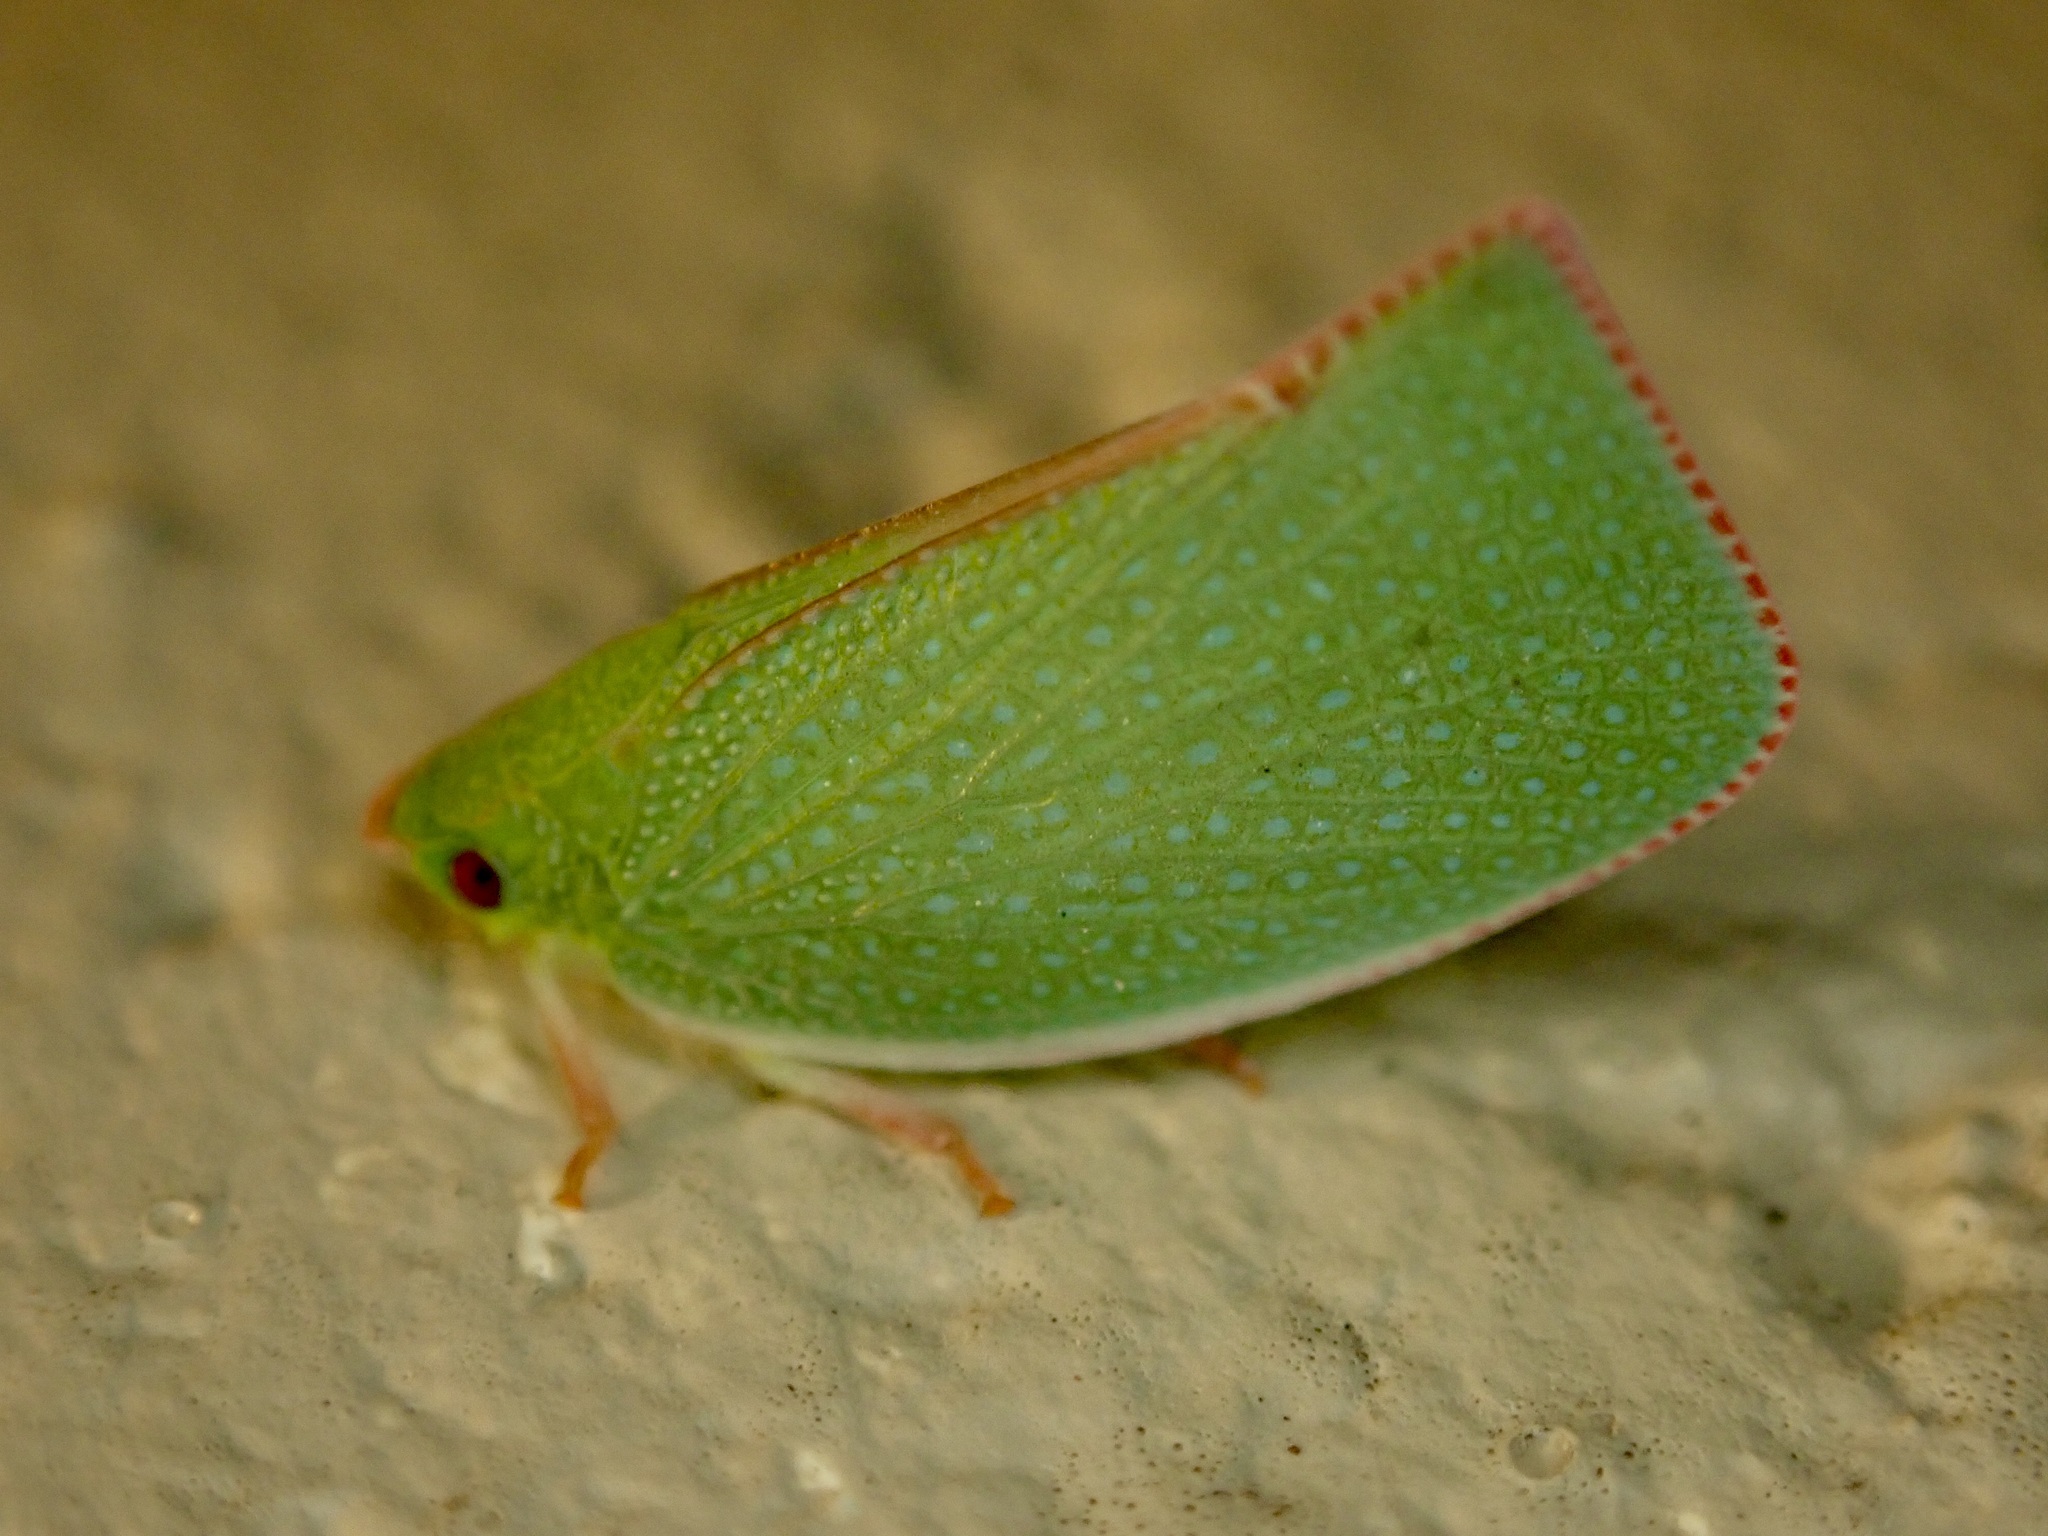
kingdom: Animalia
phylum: Arthropoda
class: Insecta
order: Hemiptera
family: Flatidae
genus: Siphanta
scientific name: Siphanta acuta
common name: Torpedo bug
